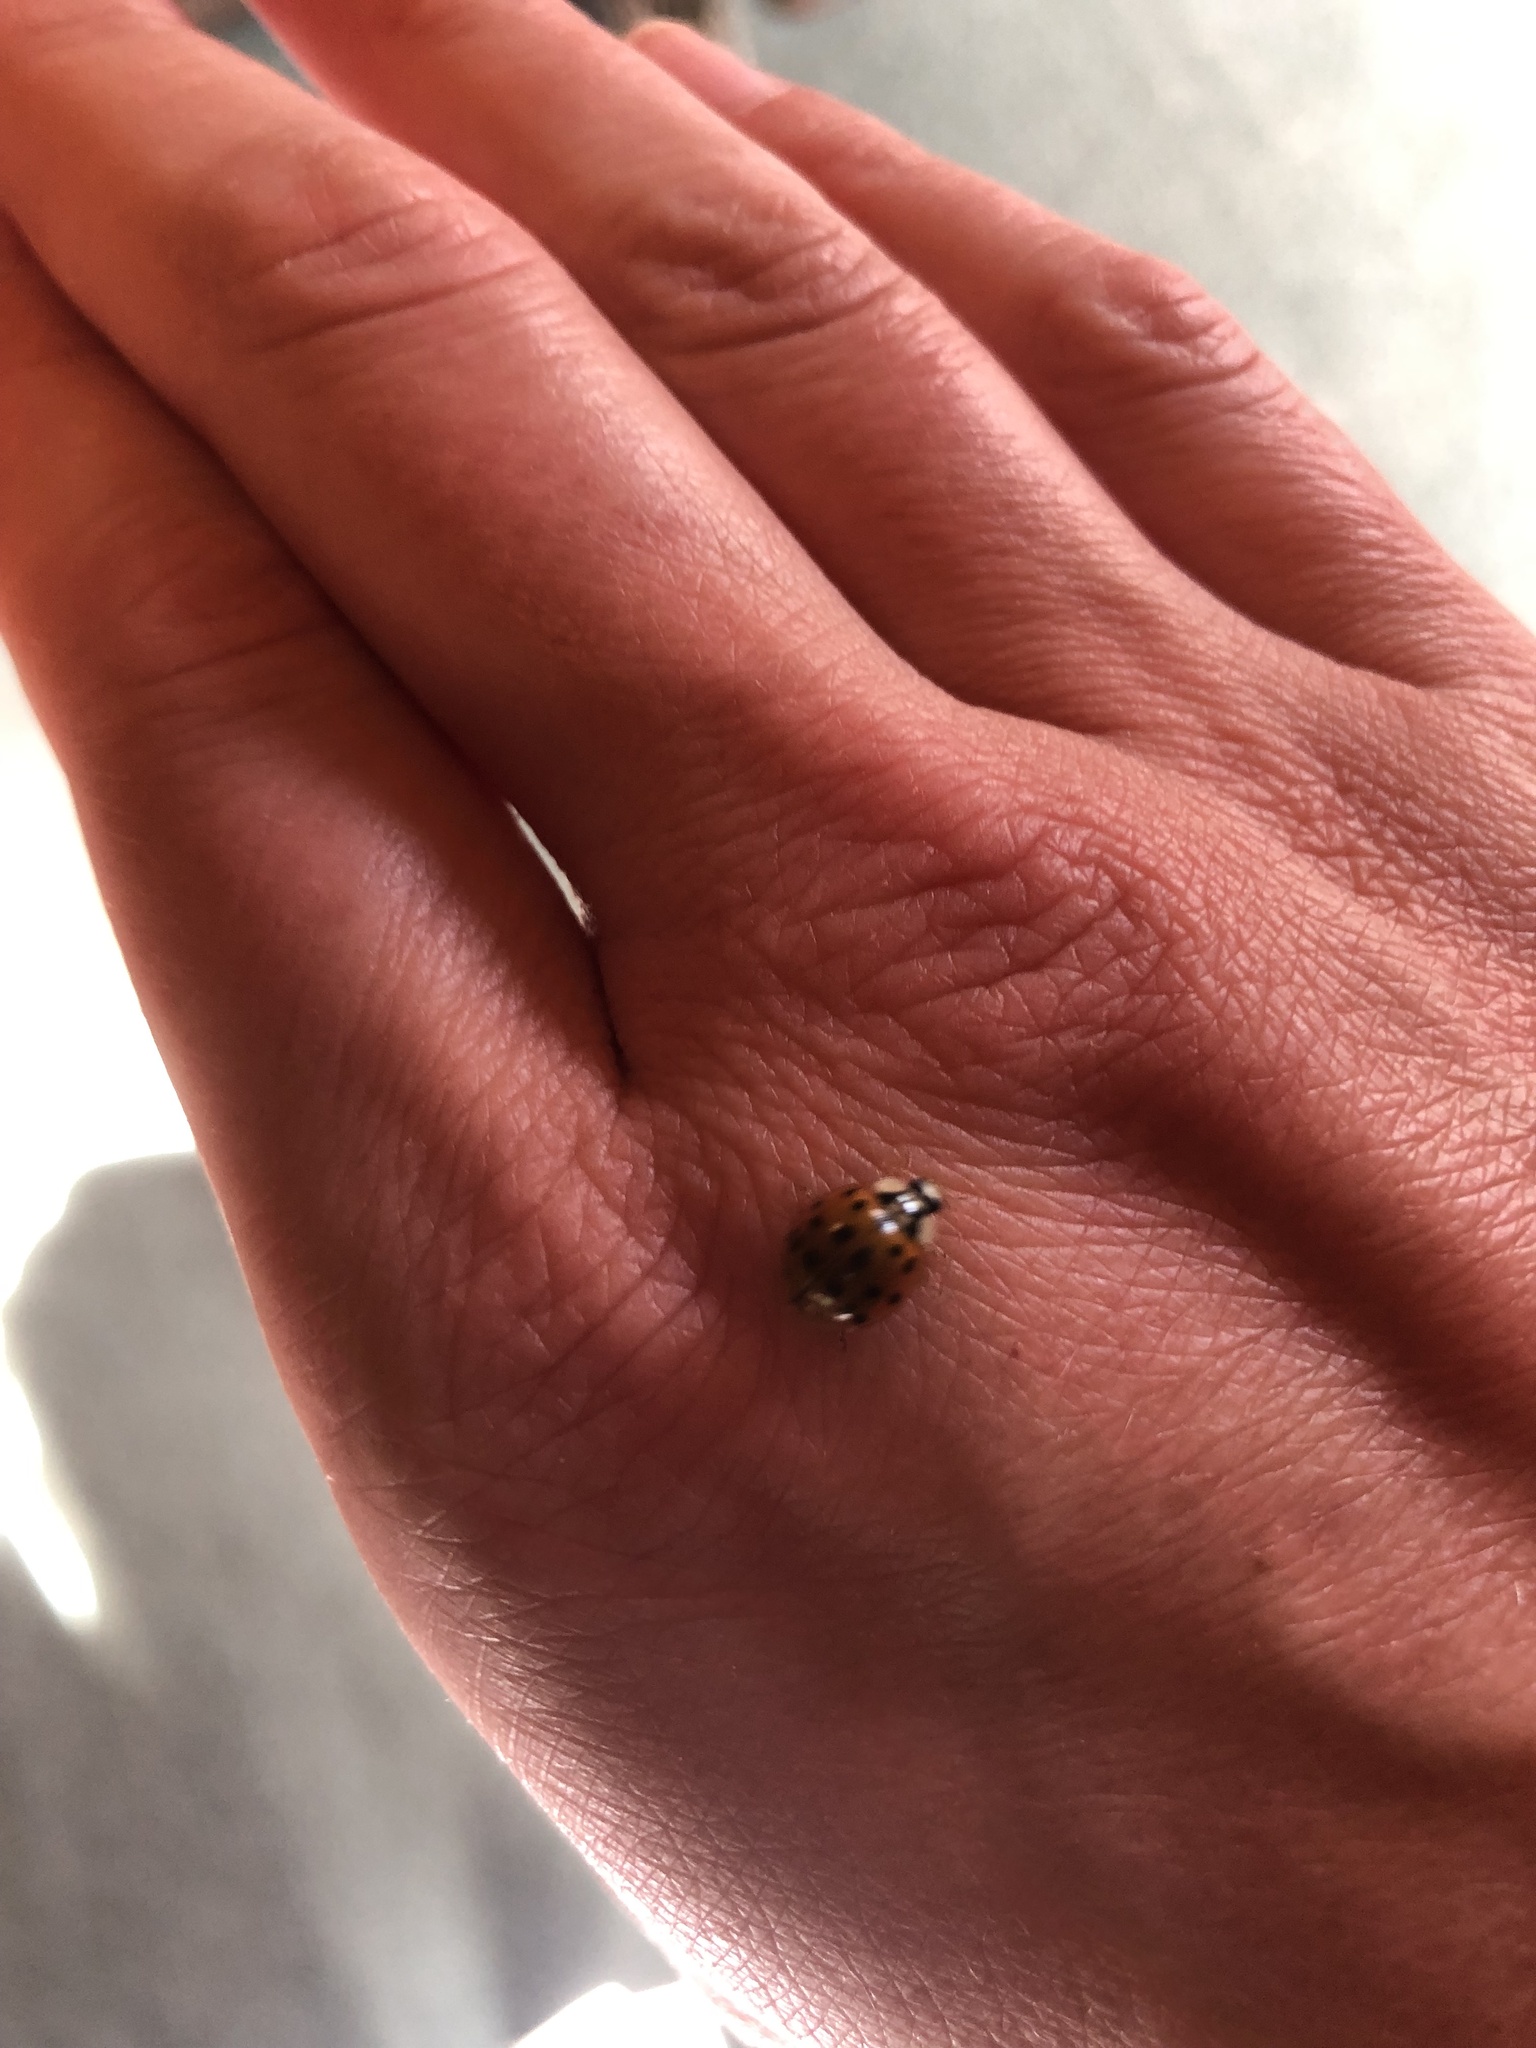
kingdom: Animalia
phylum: Arthropoda
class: Insecta
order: Coleoptera
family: Coccinellidae
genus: Harmonia
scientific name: Harmonia axyridis
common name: Harlequin ladybird
